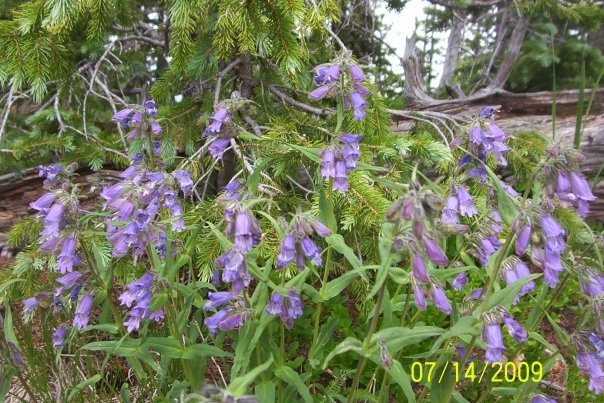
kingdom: Plantae
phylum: Tracheophyta
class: Magnoliopsida
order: Lamiales
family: Plantaginaceae
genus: Penstemon
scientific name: Penstemon whippleanus
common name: Whipple's penstemon
